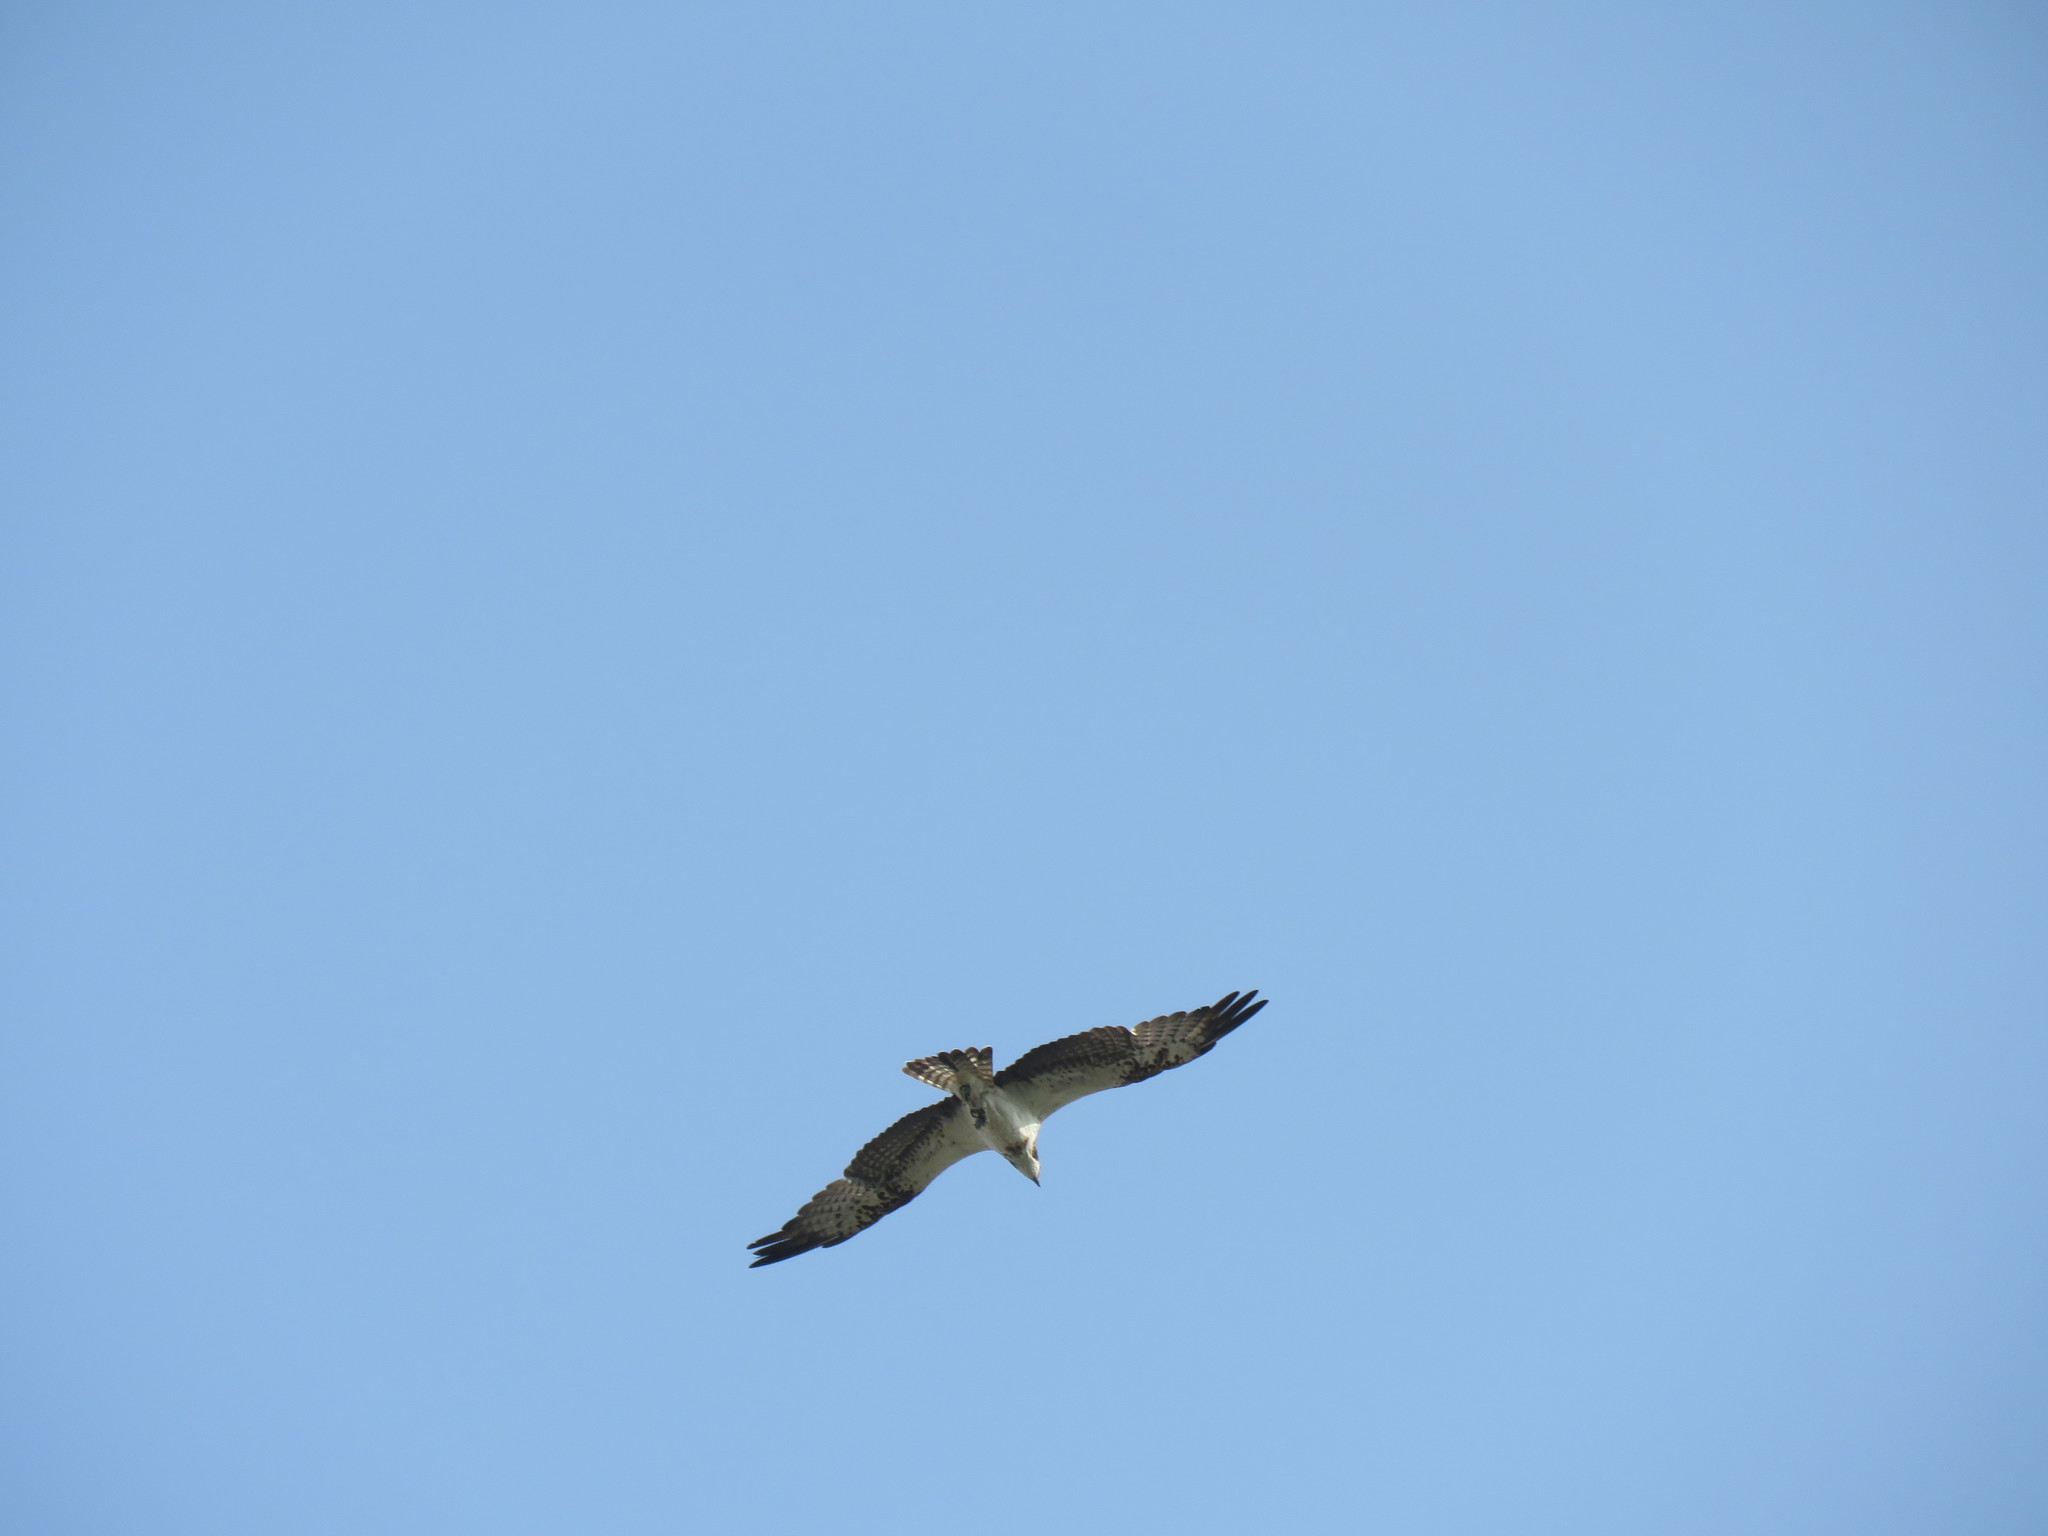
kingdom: Animalia
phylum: Chordata
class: Aves
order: Accipitriformes
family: Pandionidae
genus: Pandion
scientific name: Pandion haliaetus
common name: Osprey
